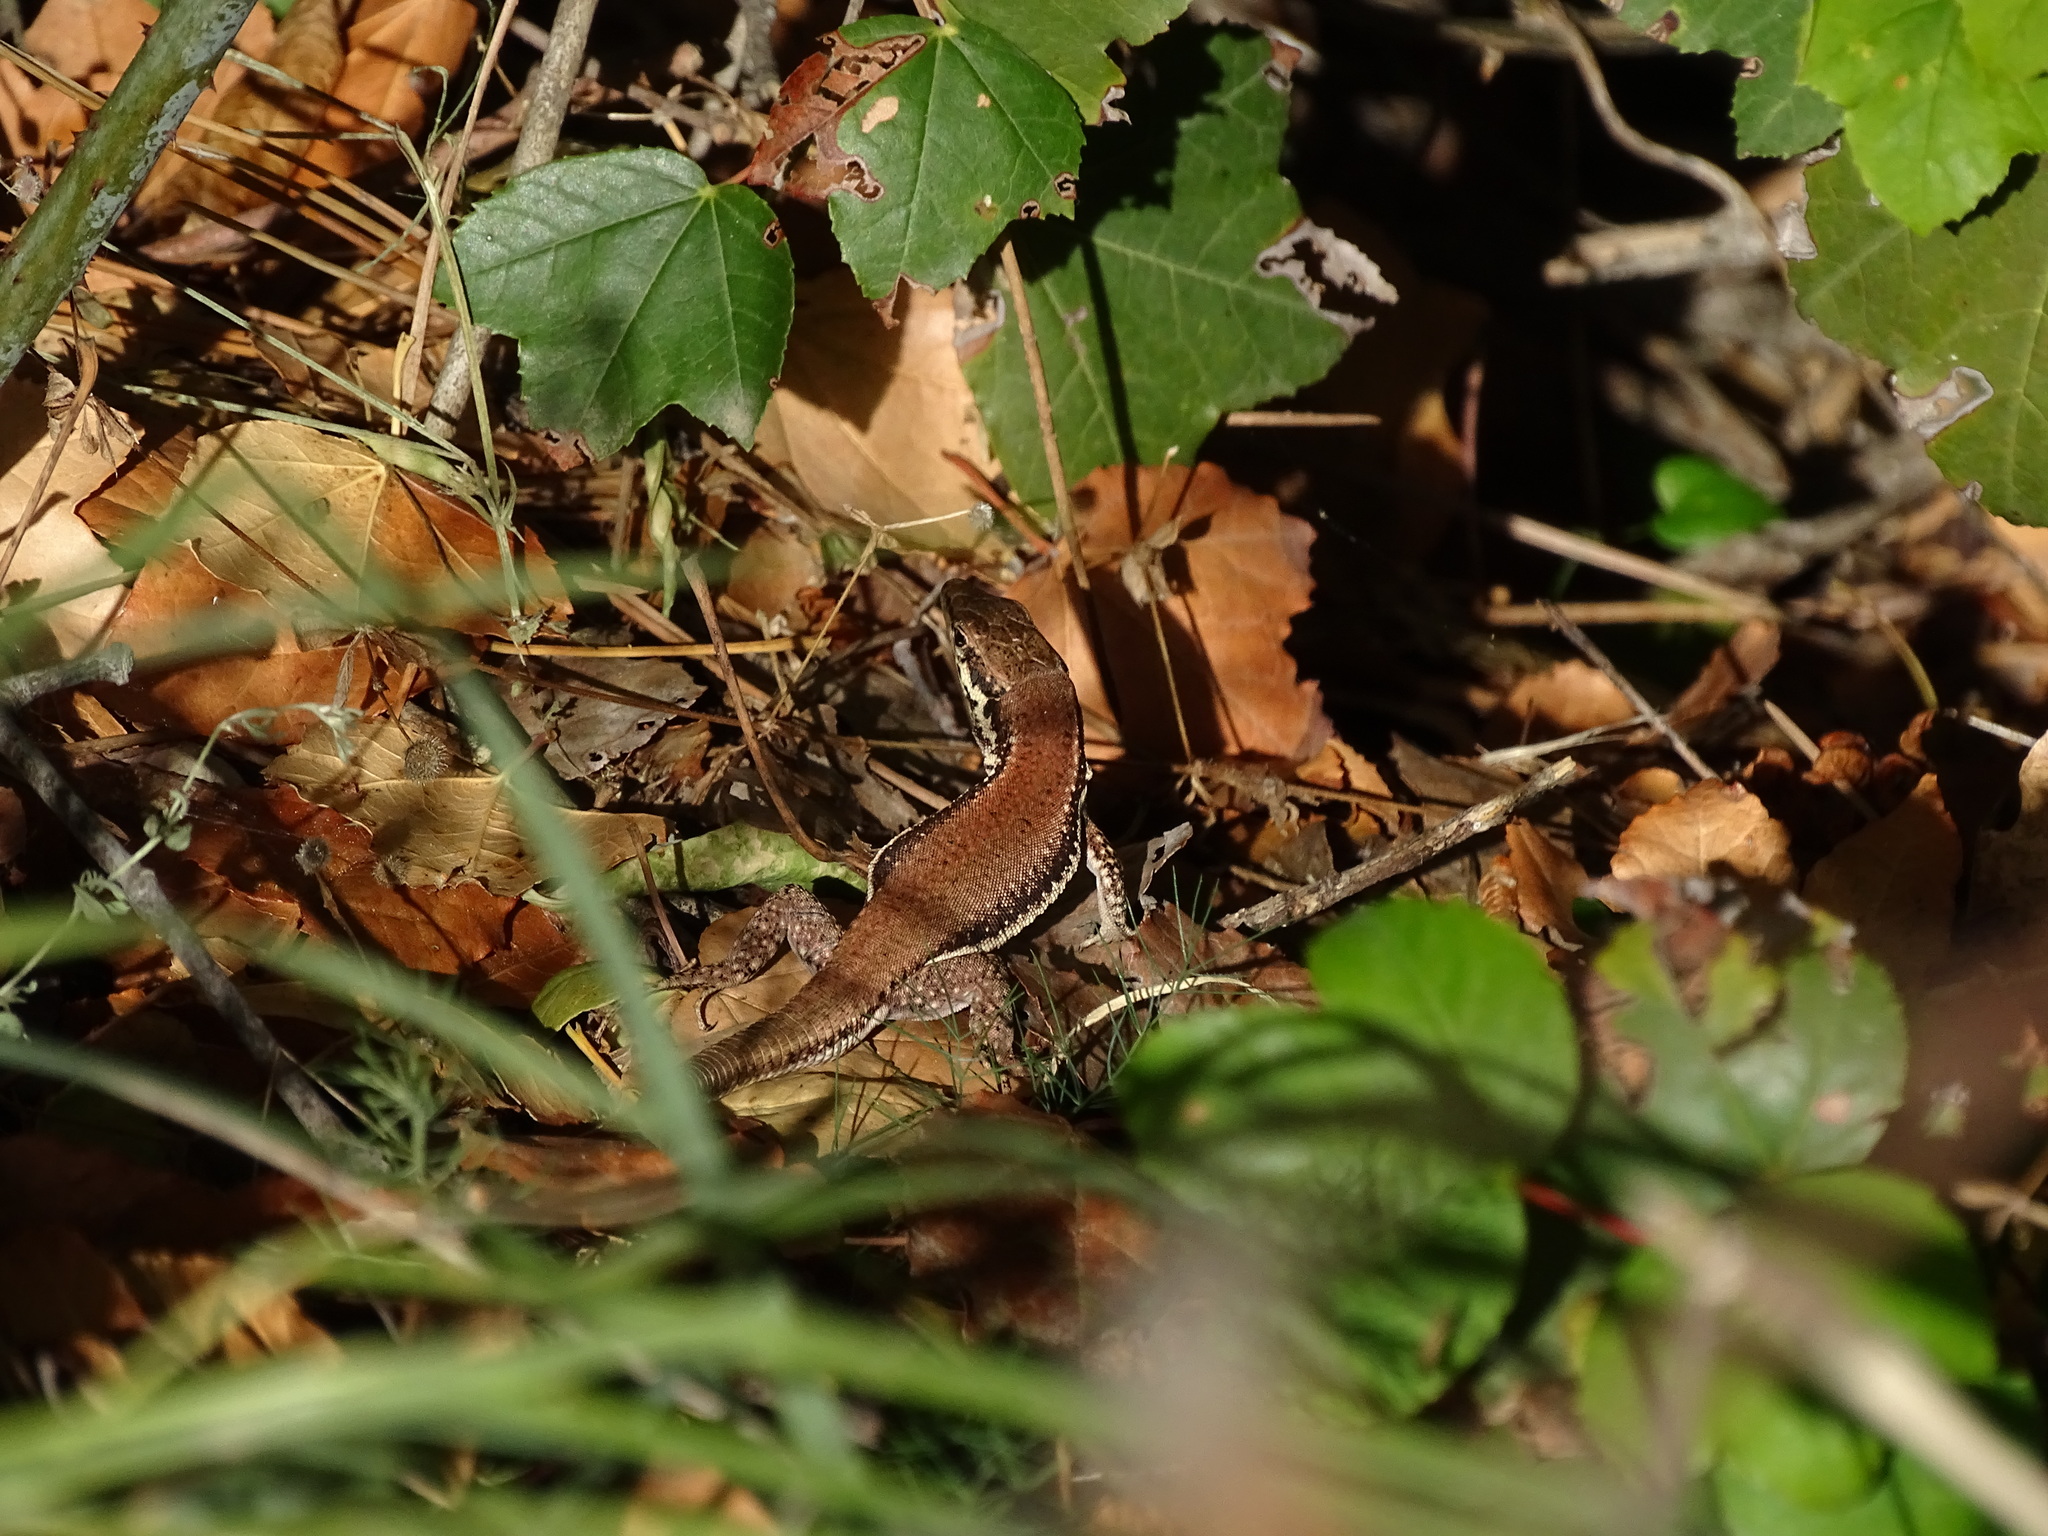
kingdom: Animalia
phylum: Chordata
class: Squamata
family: Lacertidae
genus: Phoenicolacerta
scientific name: Phoenicolacerta troodica
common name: Troodos wall lizard
